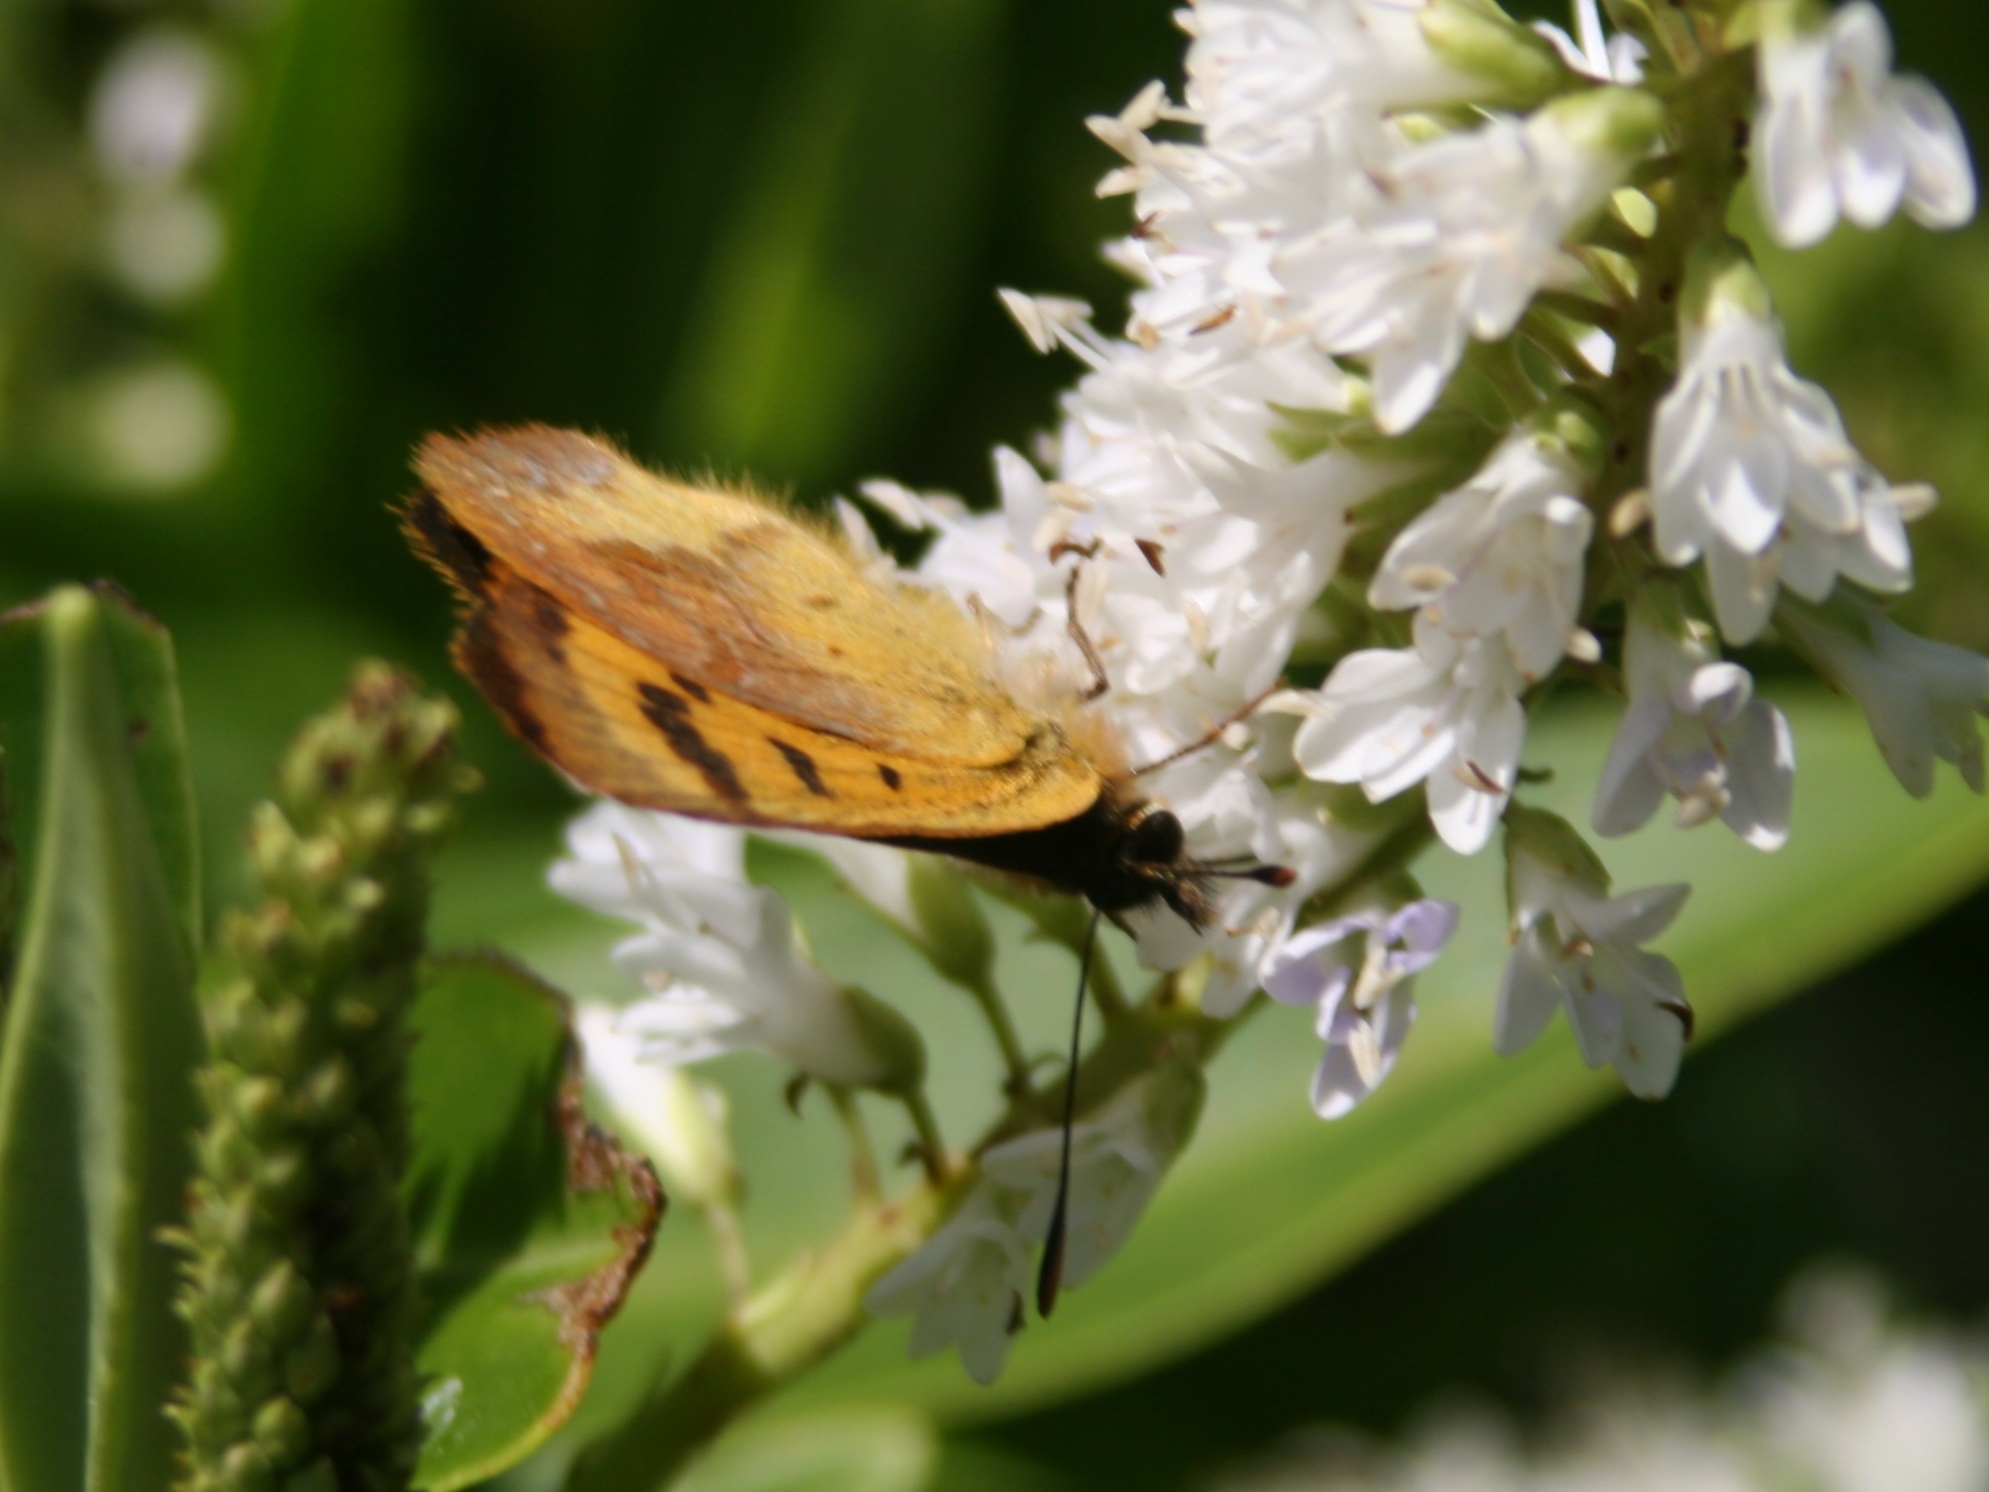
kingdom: Animalia
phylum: Arthropoda
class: Insecta
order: Lepidoptera
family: Lycaenidae
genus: Lycaena
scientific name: Lycaena
